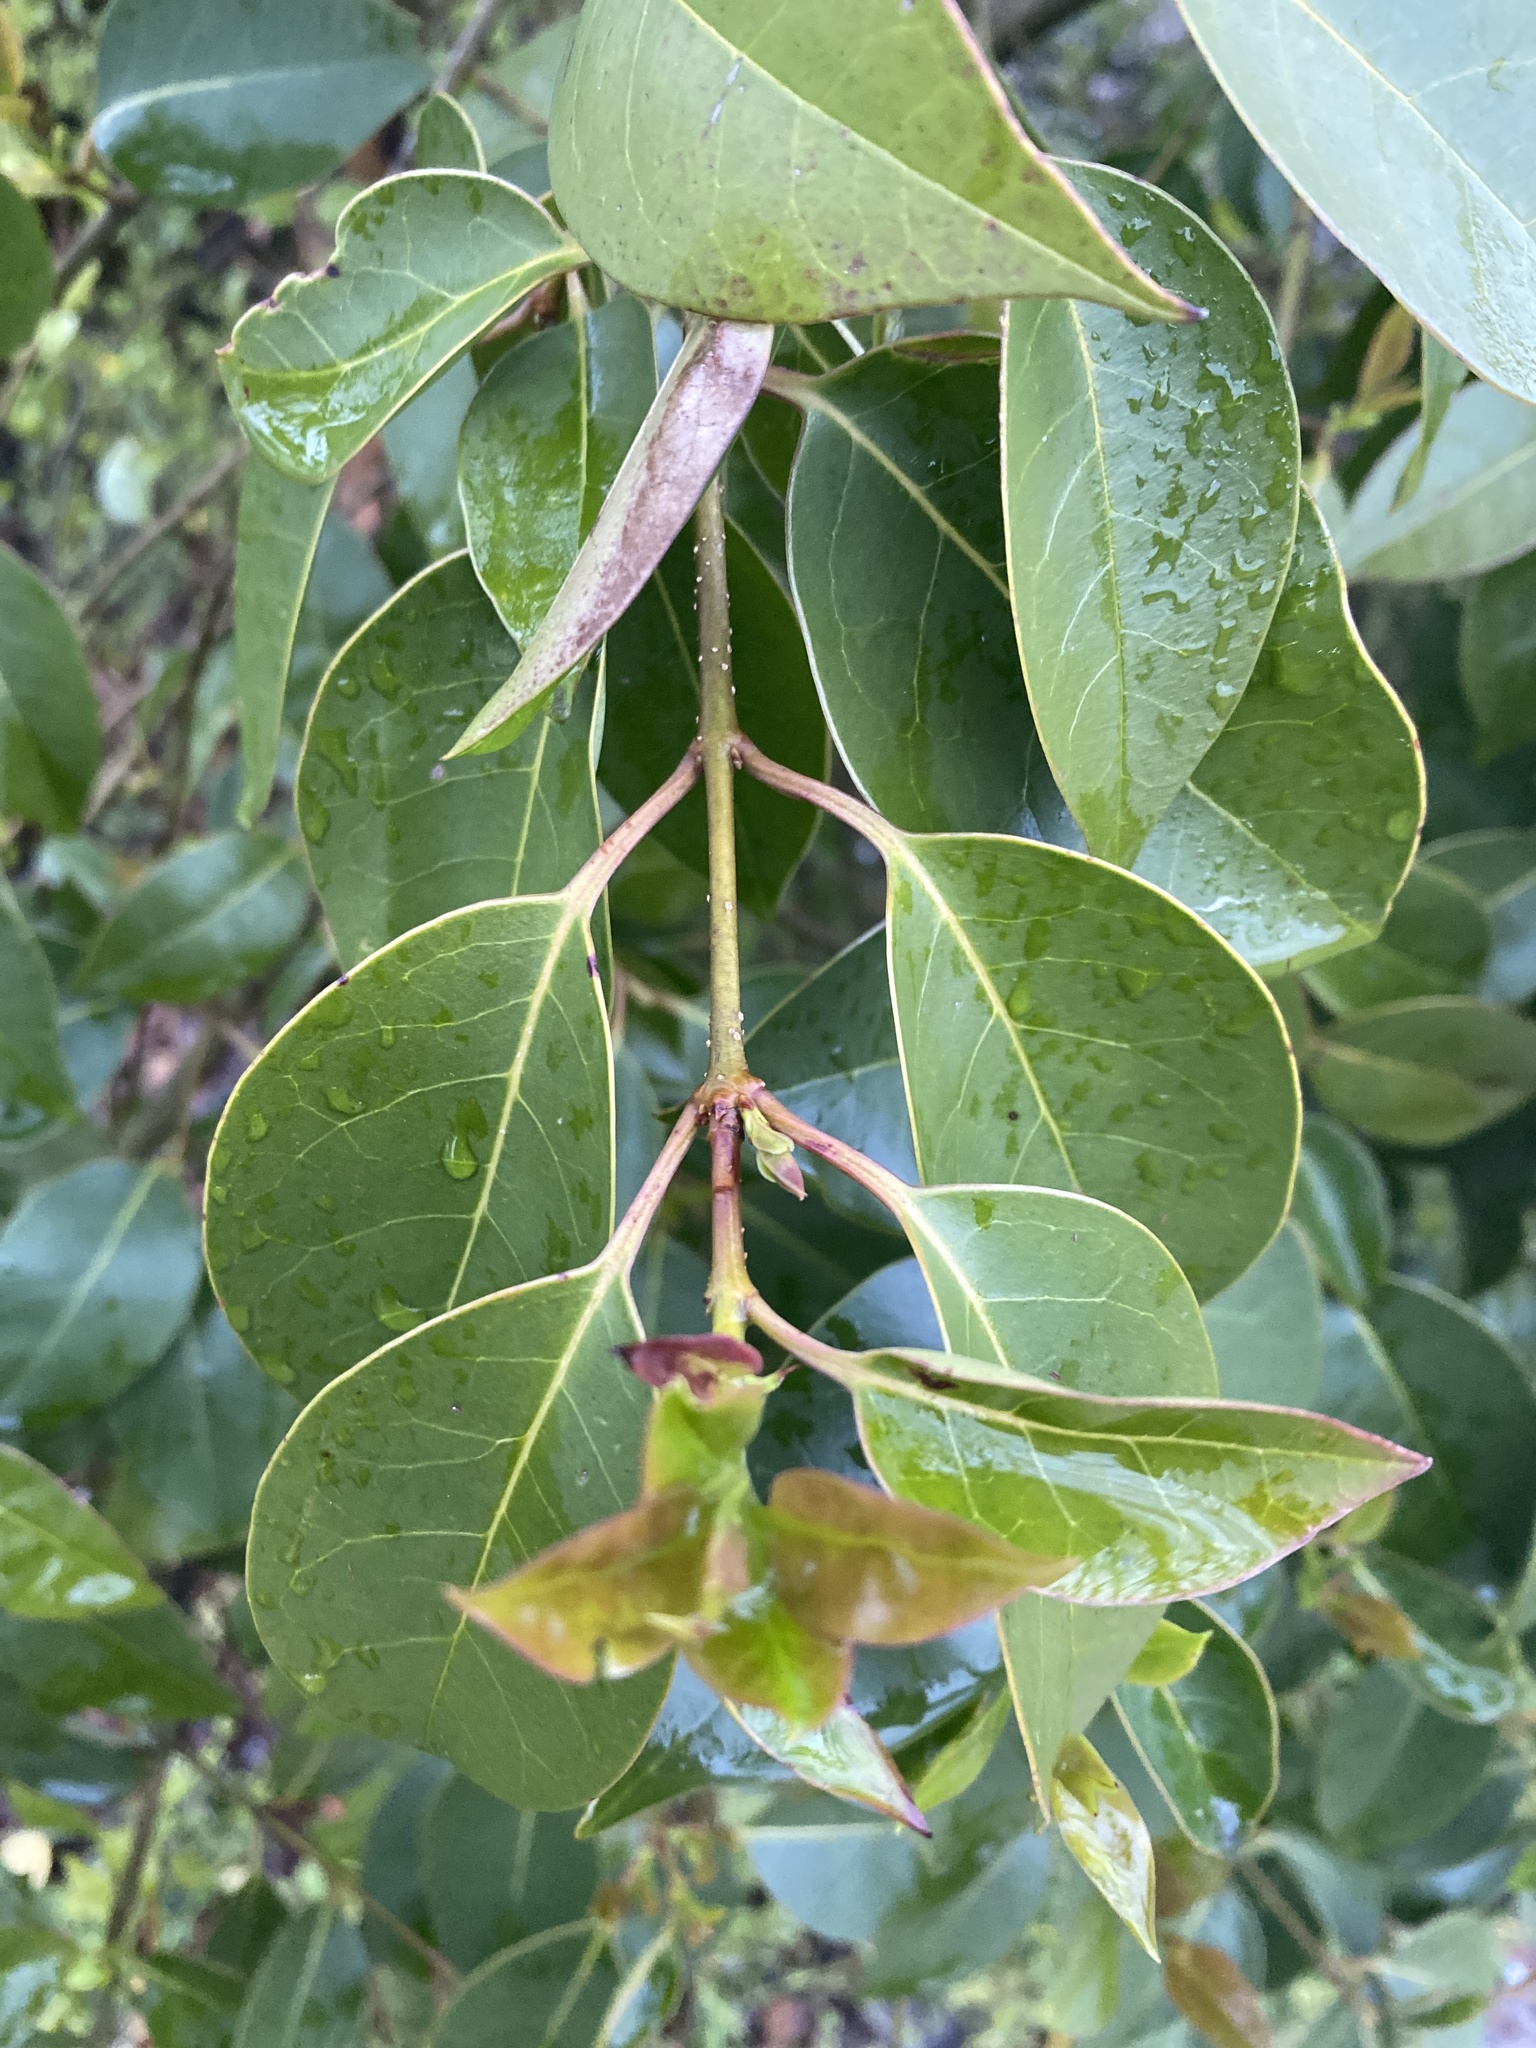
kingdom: Plantae
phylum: Tracheophyta
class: Magnoliopsida
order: Lamiales
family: Oleaceae
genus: Ligustrum
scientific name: Ligustrum lucidum
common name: Glossy privet
